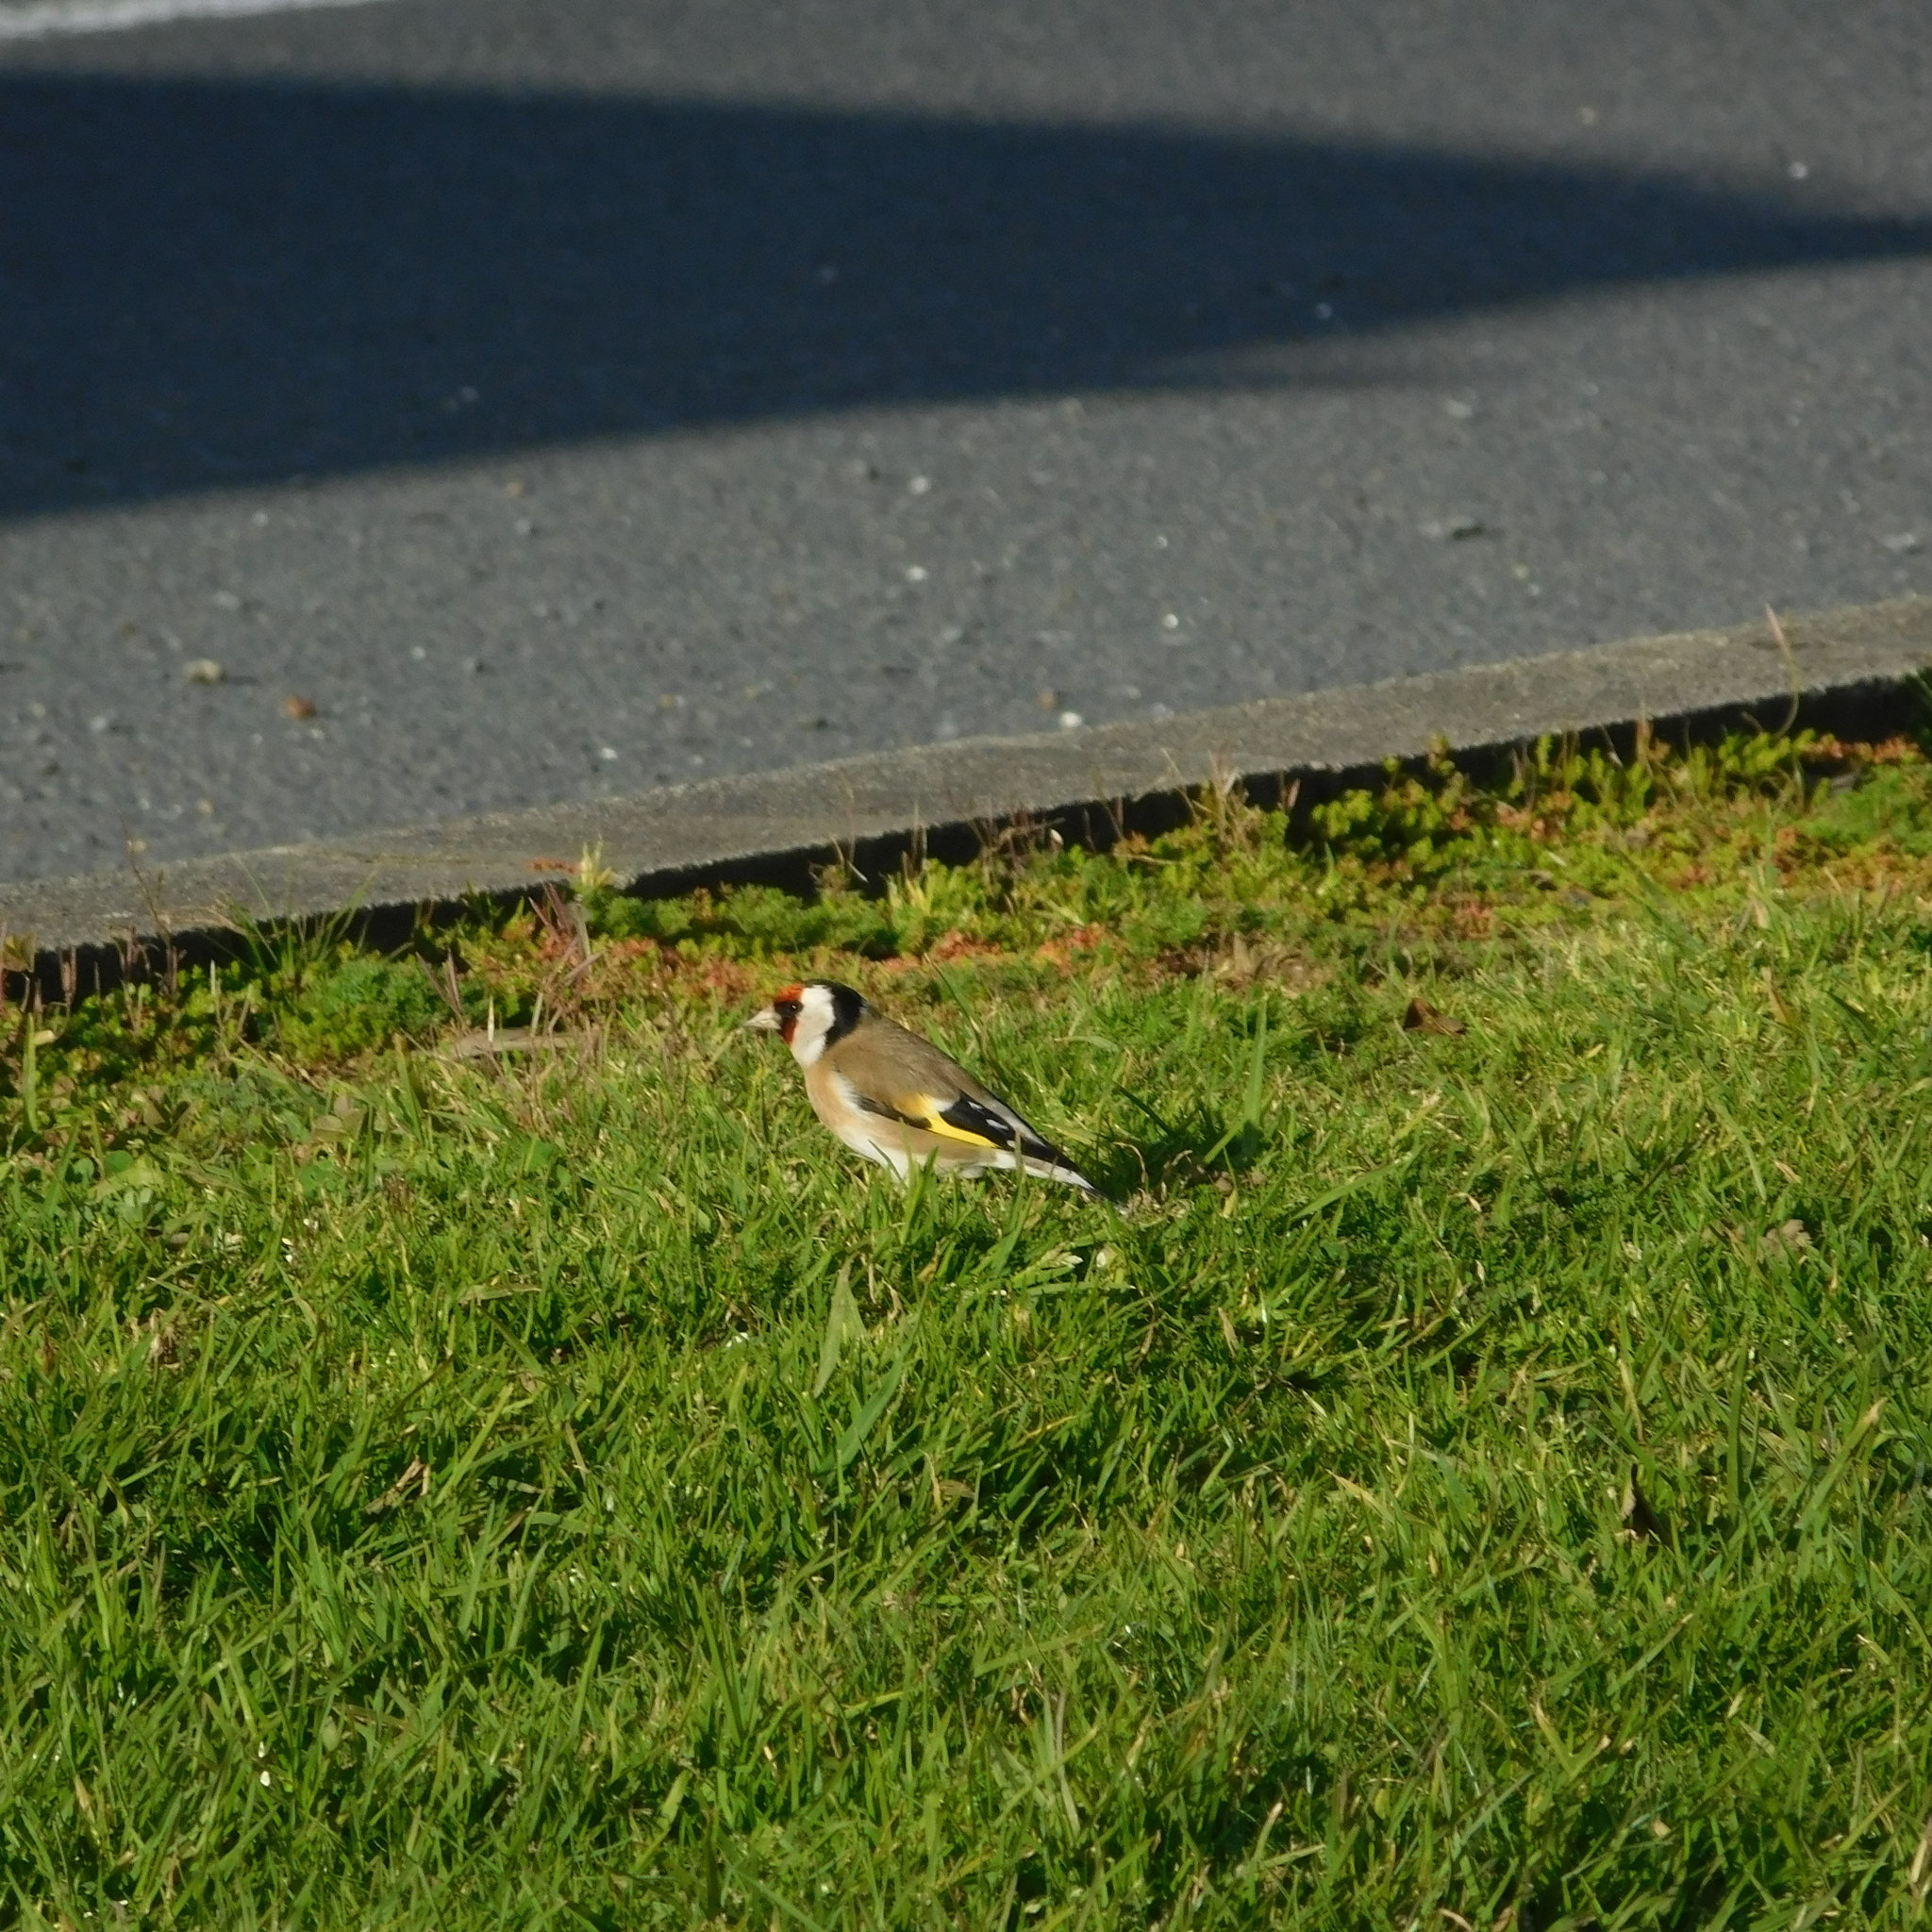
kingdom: Animalia
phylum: Chordata
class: Aves
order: Passeriformes
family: Fringillidae
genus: Carduelis
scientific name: Carduelis carduelis
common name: European goldfinch
